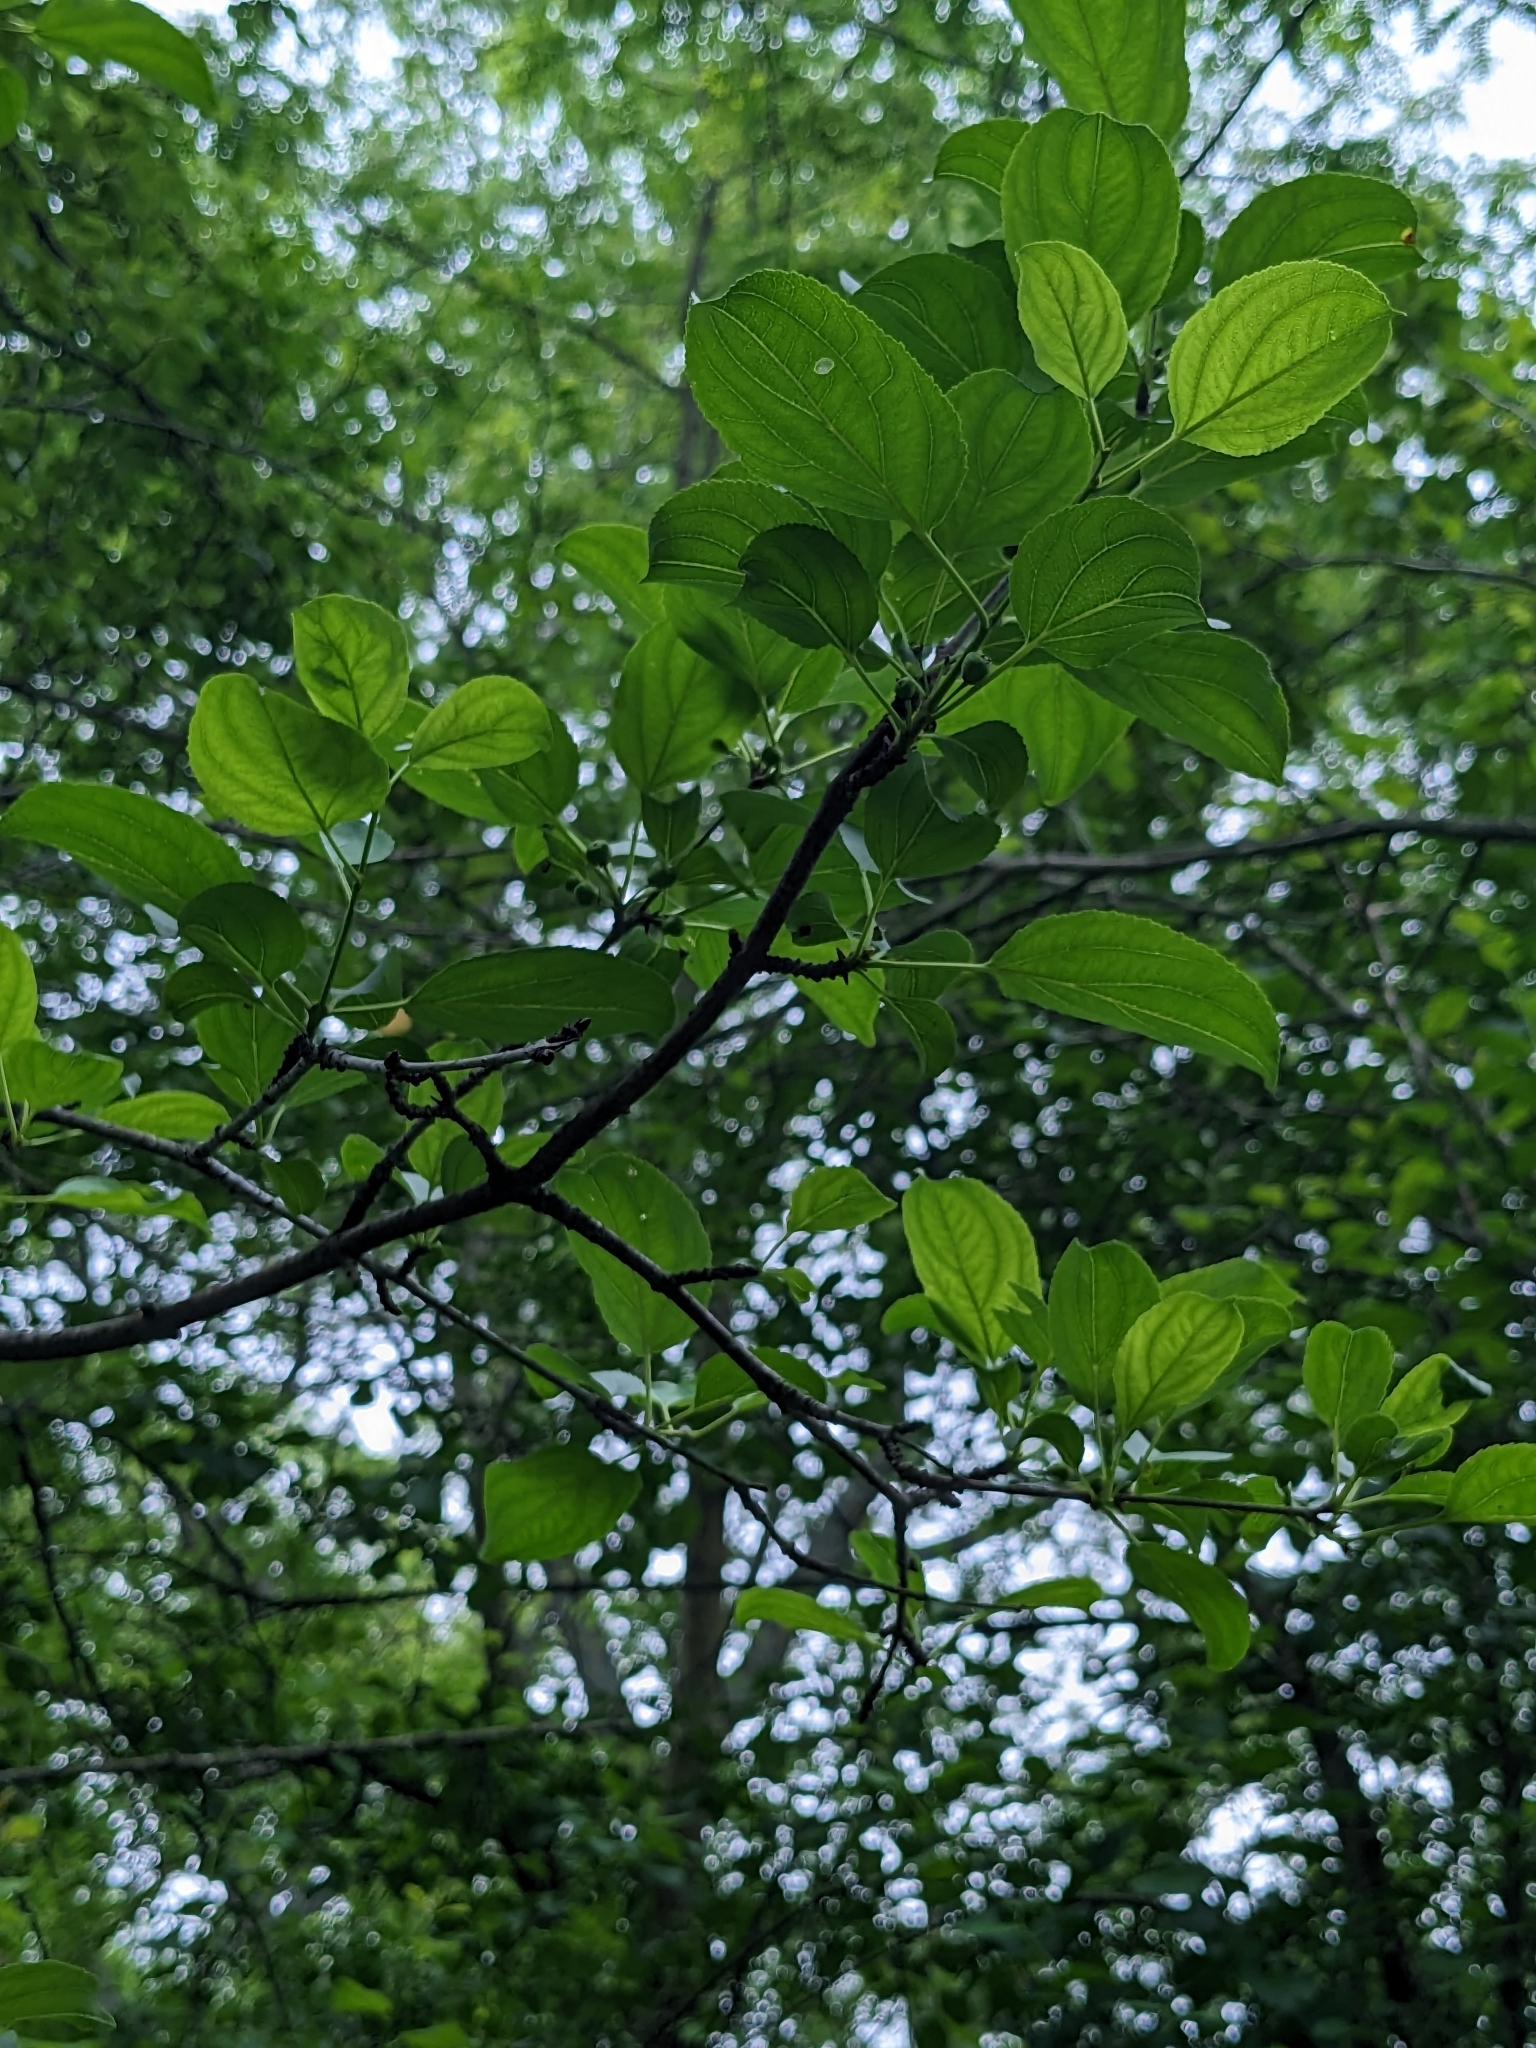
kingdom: Plantae
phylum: Tracheophyta
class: Magnoliopsida
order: Rosales
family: Rhamnaceae
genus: Rhamnus
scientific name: Rhamnus cathartica
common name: Common buckthorn
